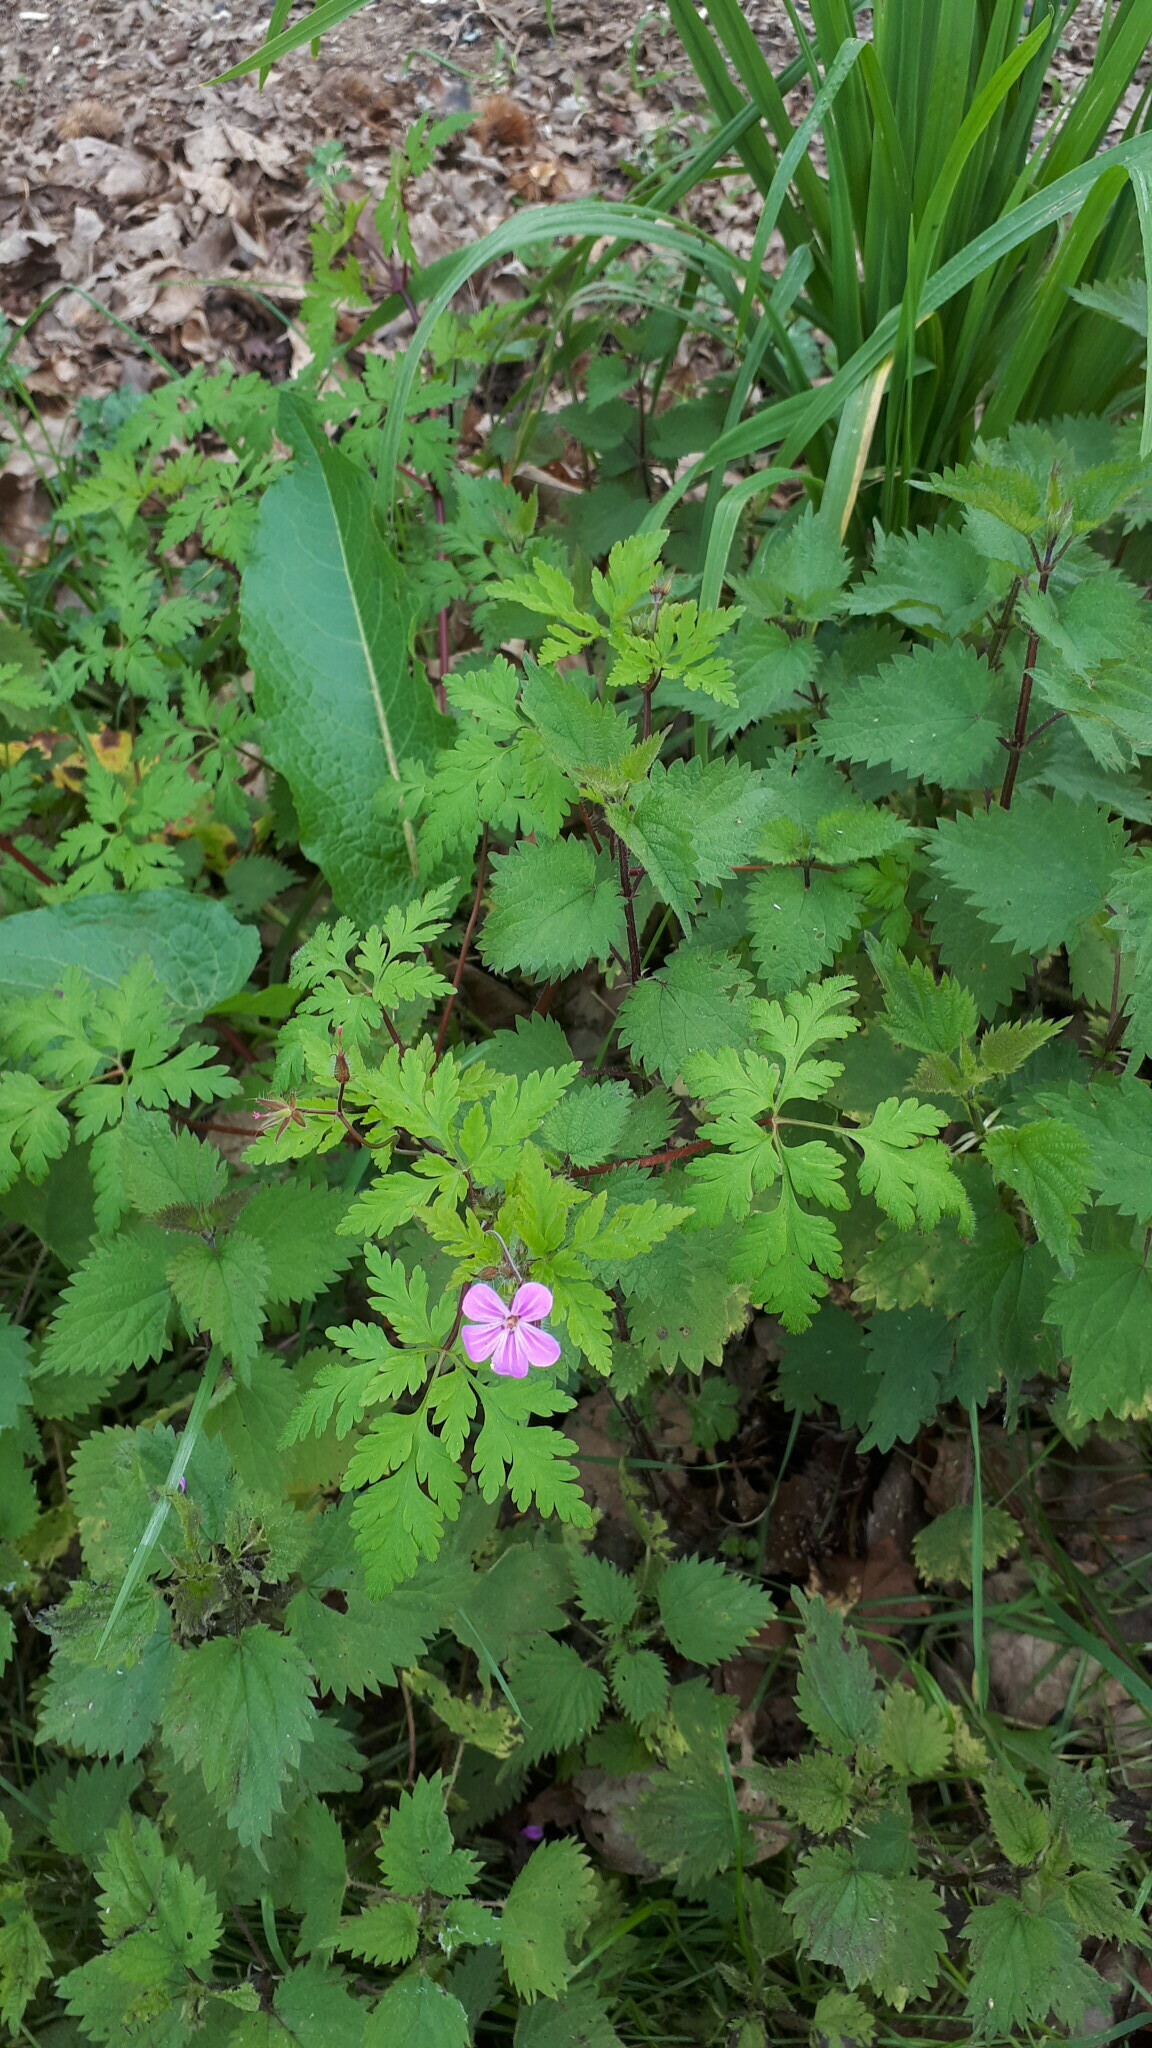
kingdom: Plantae
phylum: Tracheophyta
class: Magnoliopsida
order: Geraniales
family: Geraniaceae
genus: Geranium
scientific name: Geranium robertianum
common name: Herb-robert
